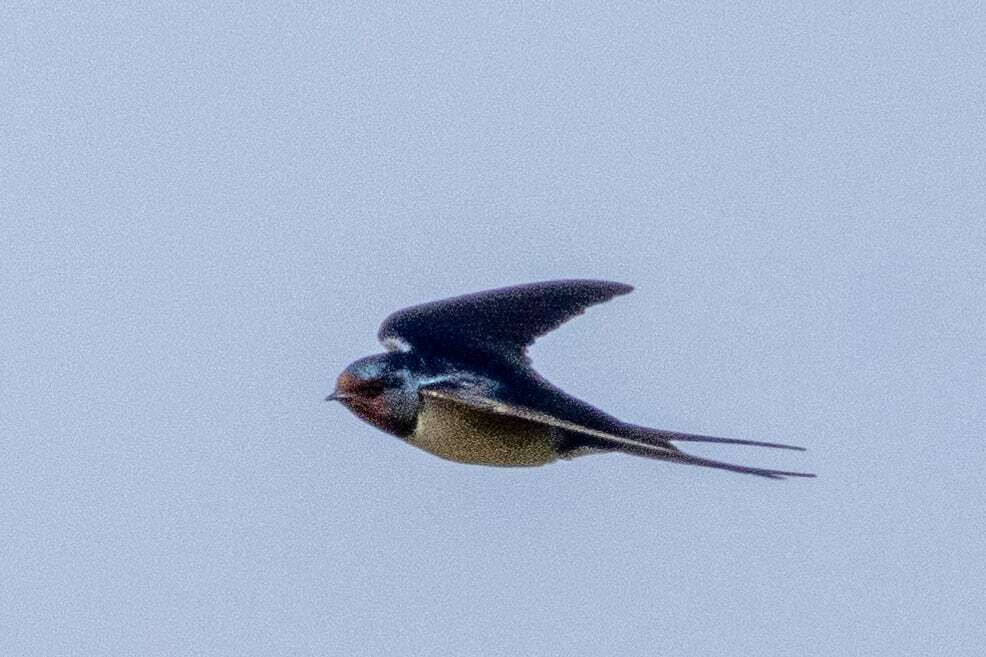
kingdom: Animalia
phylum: Chordata
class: Aves
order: Passeriformes
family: Hirundinidae
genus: Hirundo
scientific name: Hirundo rustica
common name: Barn swallow
